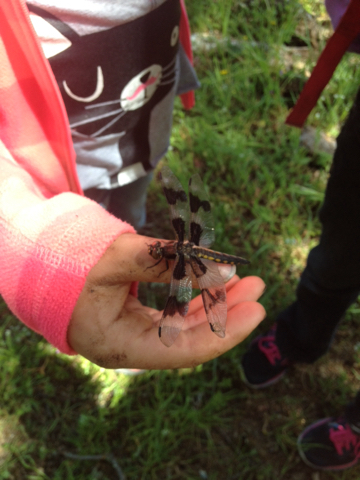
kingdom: Animalia
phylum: Arthropoda
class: Insecta
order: Odonata
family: Libellulidae
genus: Libellula
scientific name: Libellula forensis
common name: Eight-spotted skimmer
